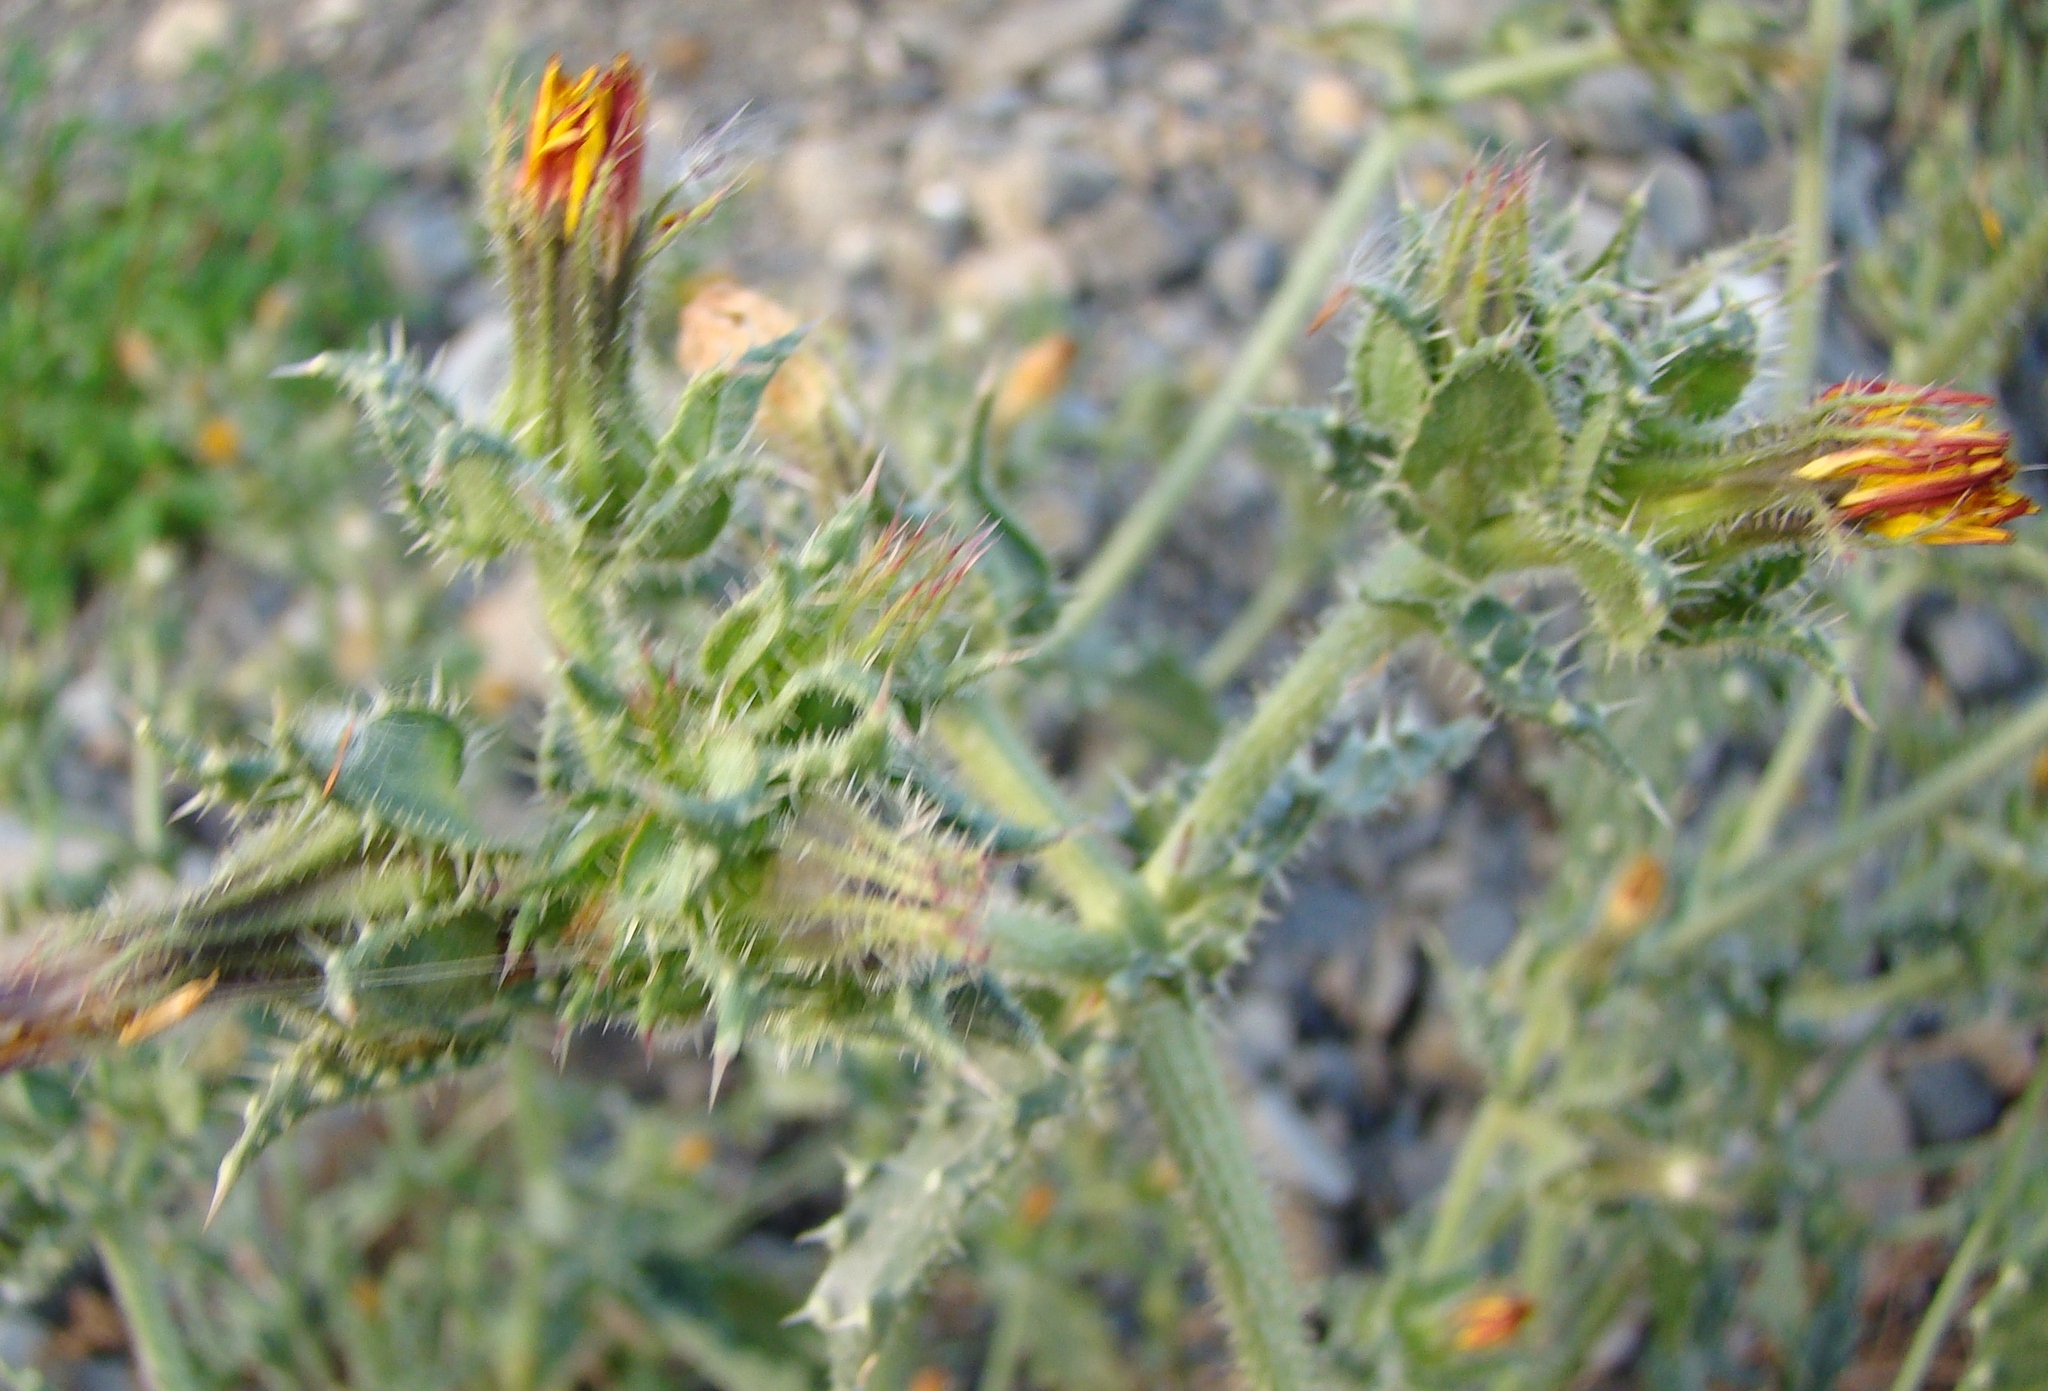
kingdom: Plantae
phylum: Tracheophyta
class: Magnoliopsida
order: Asterales
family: Asteraceae
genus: Helminthotheca
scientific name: Helminthotheca echioides
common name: Ox-tongue
